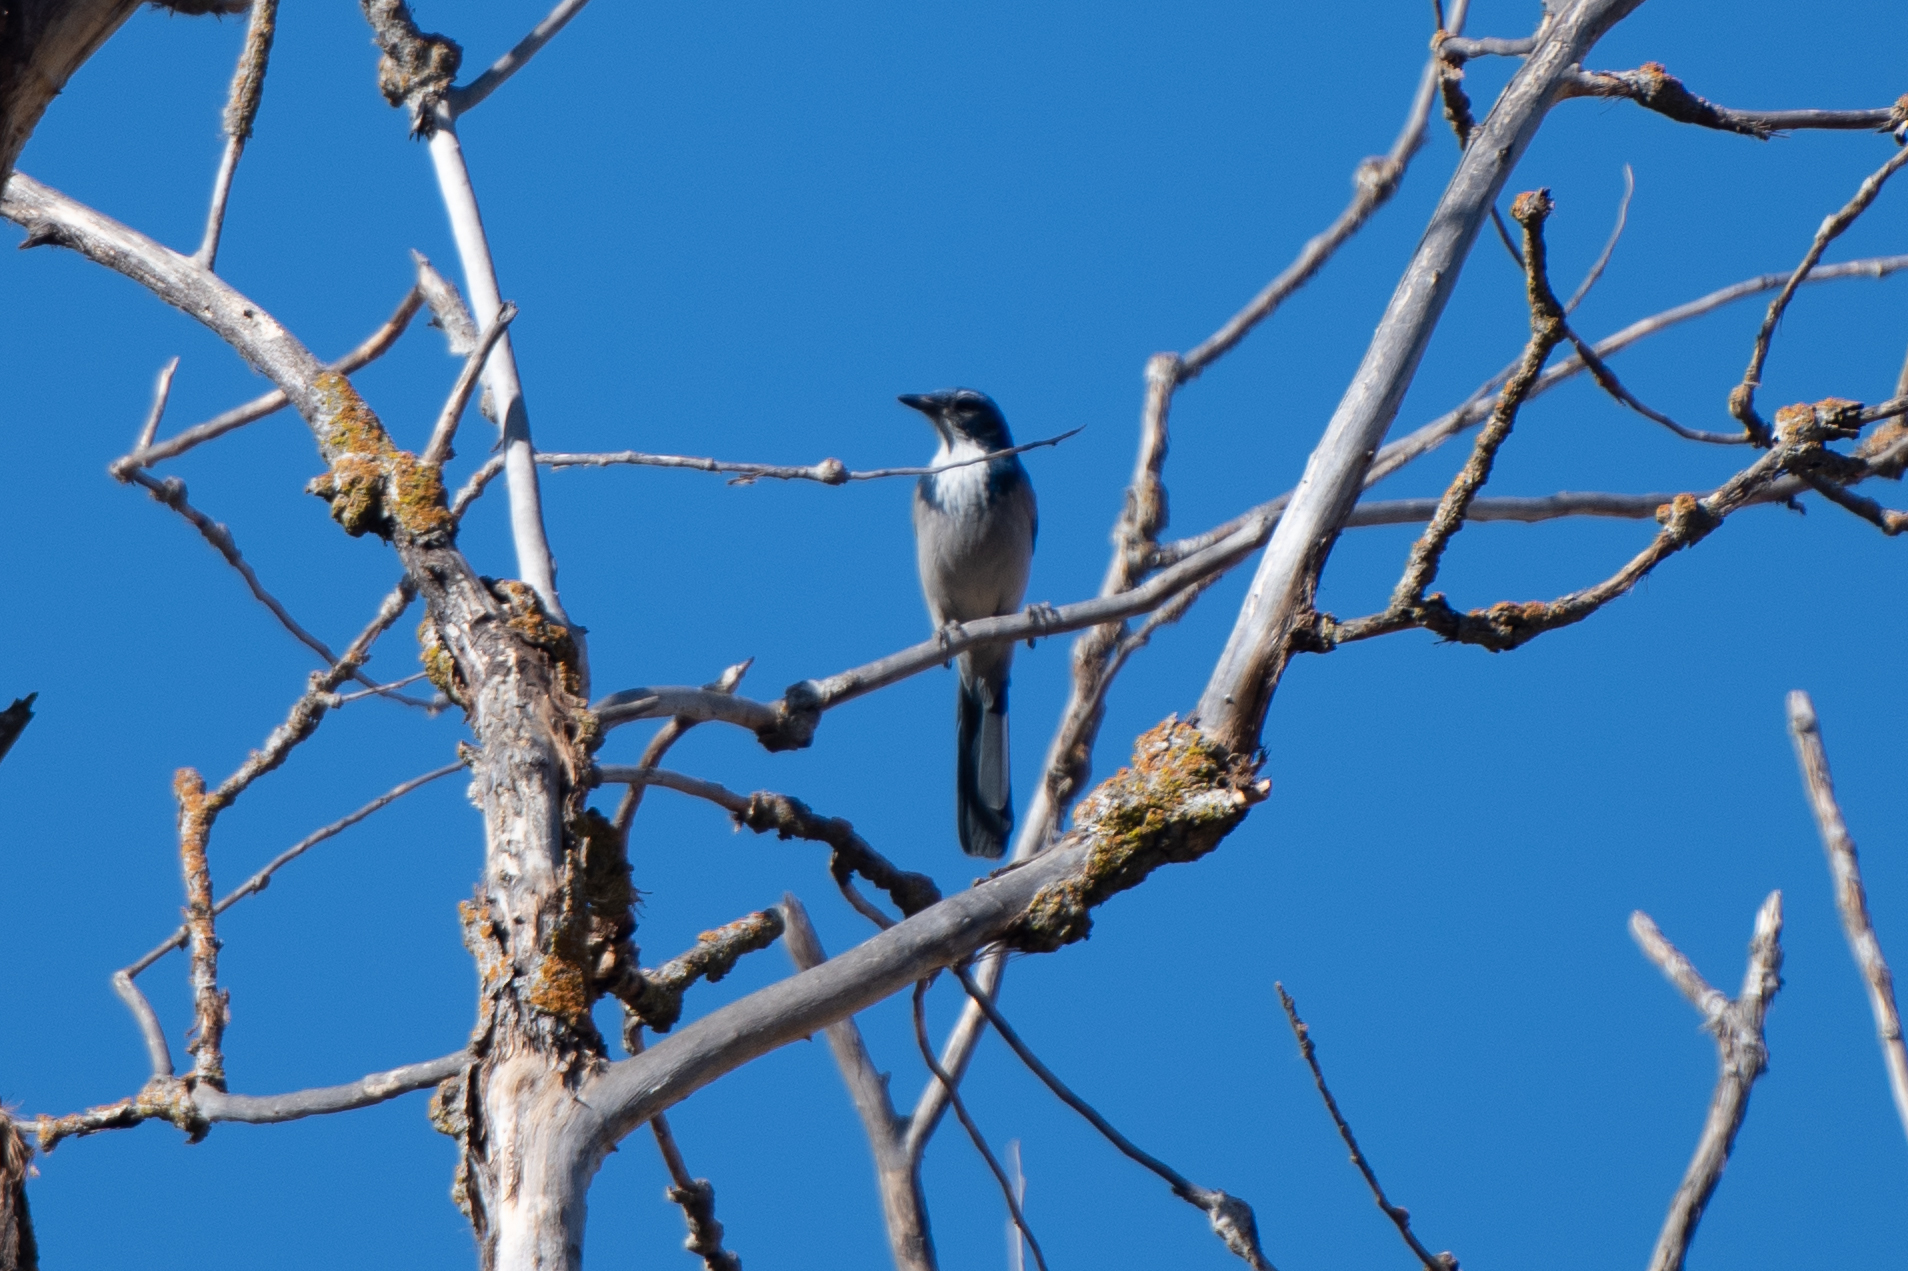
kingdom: Animalia
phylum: Chordata
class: Aves
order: Passeriformes
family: Corvidae
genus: Aphelocoma
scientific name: Aphelocoma californica
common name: California scrub-jay
